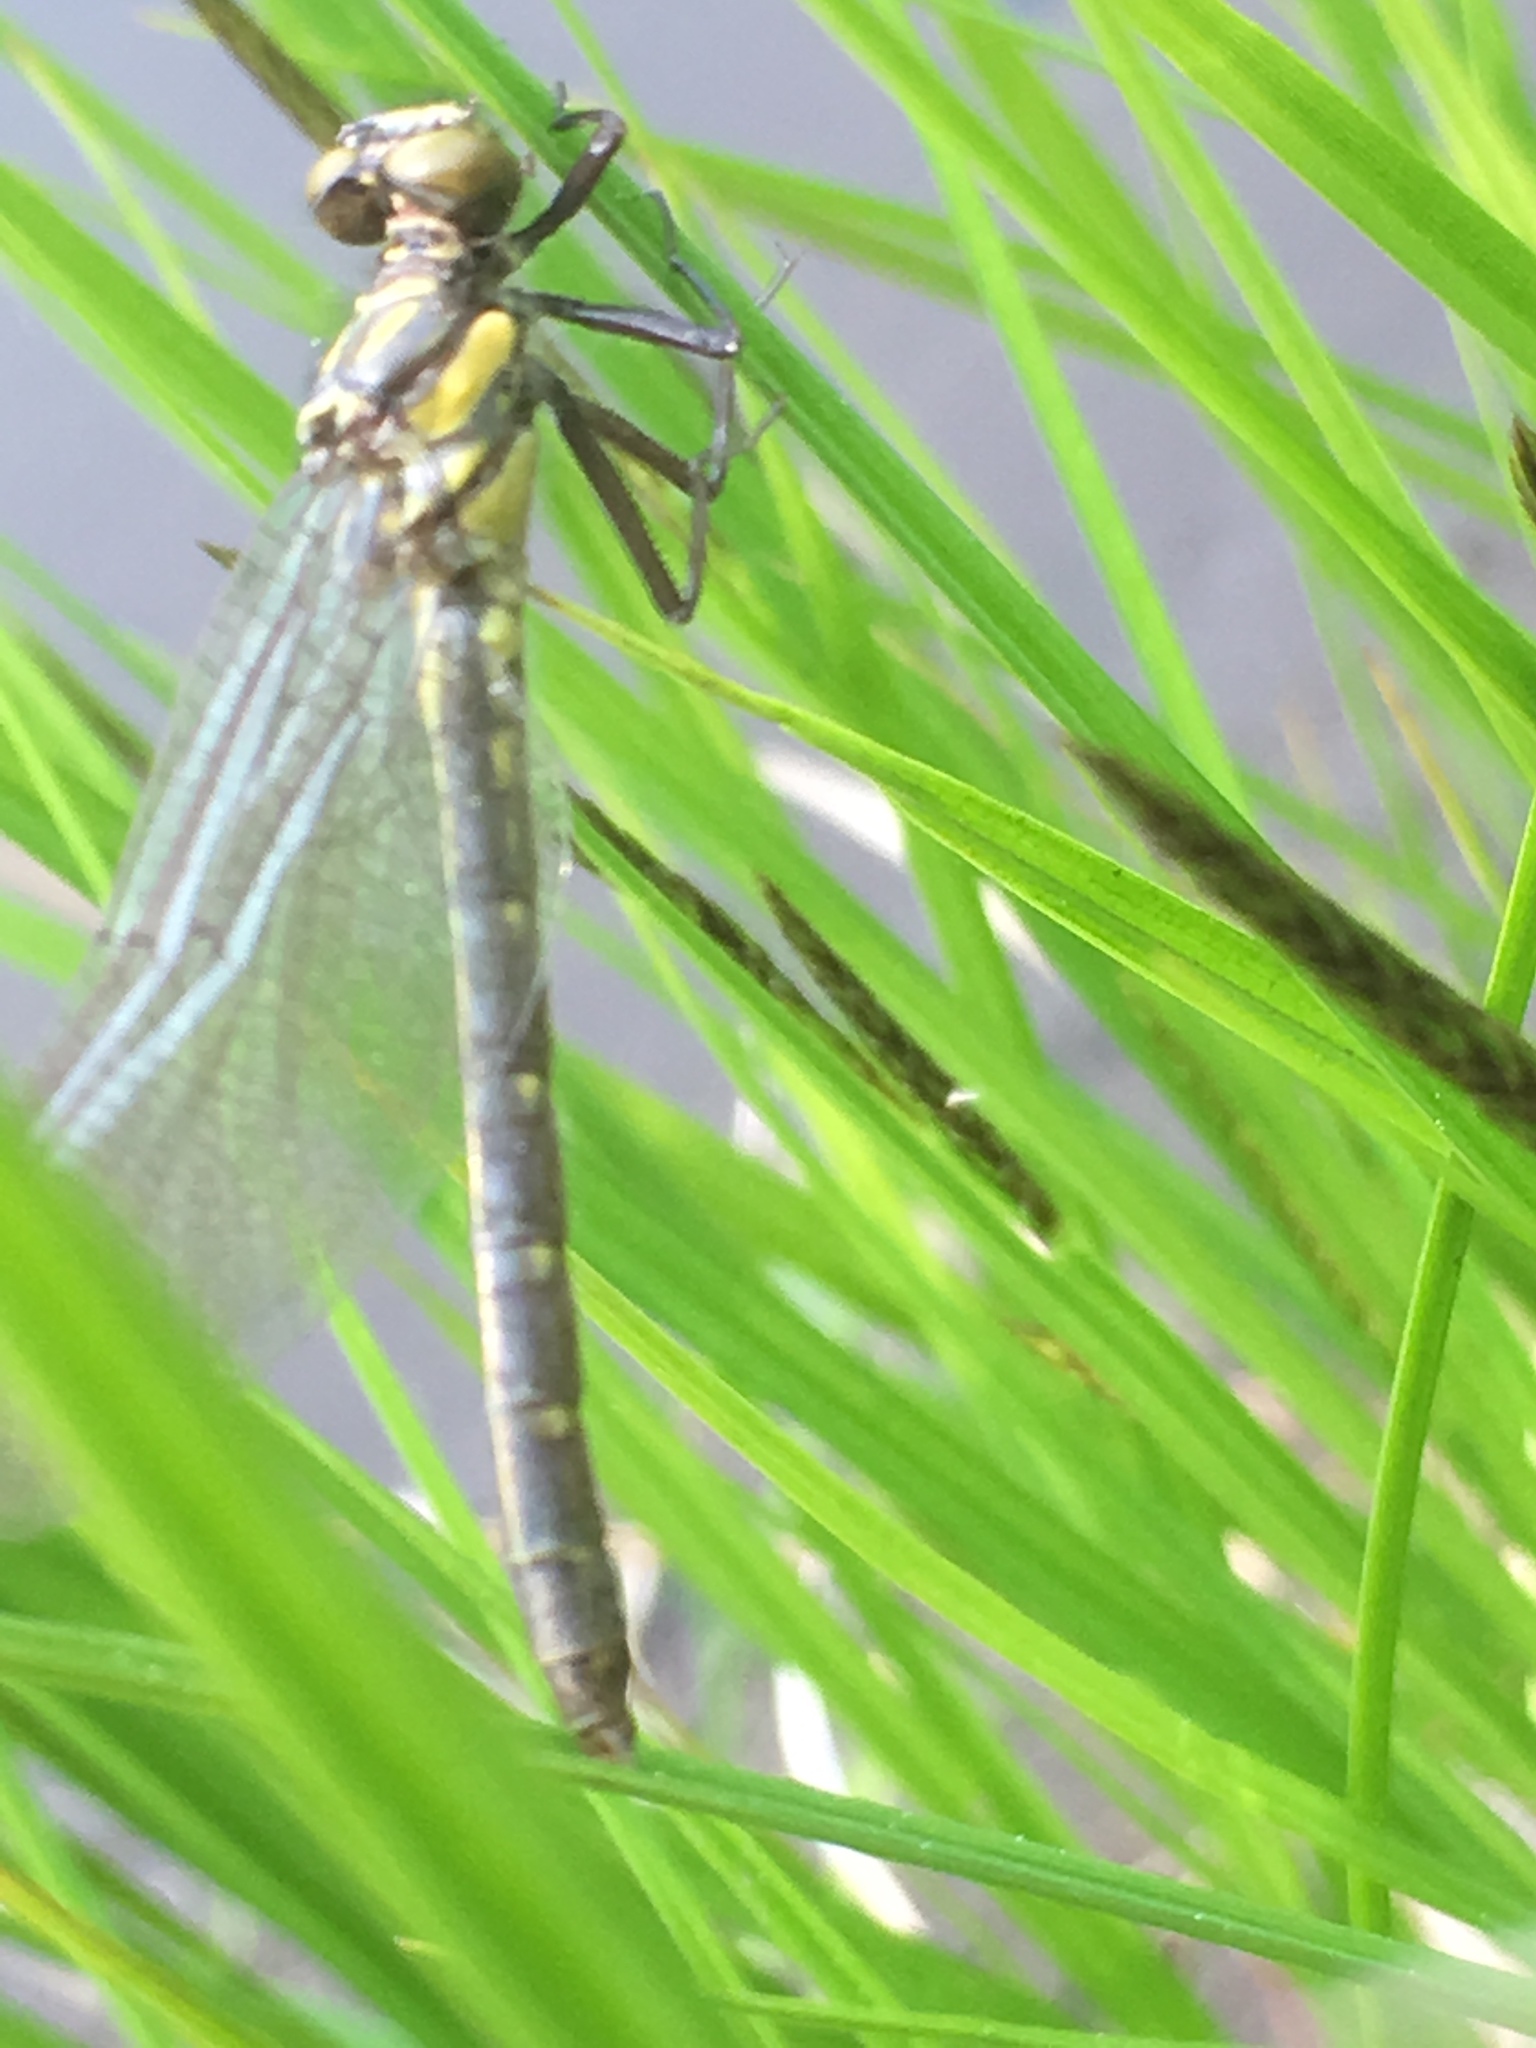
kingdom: Animalia
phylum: Arthropoda
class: Insecta
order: Odonata
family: Gomphidae
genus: Lanthus
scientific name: Lanthus parvulus
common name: Northern pygmy clubtail
